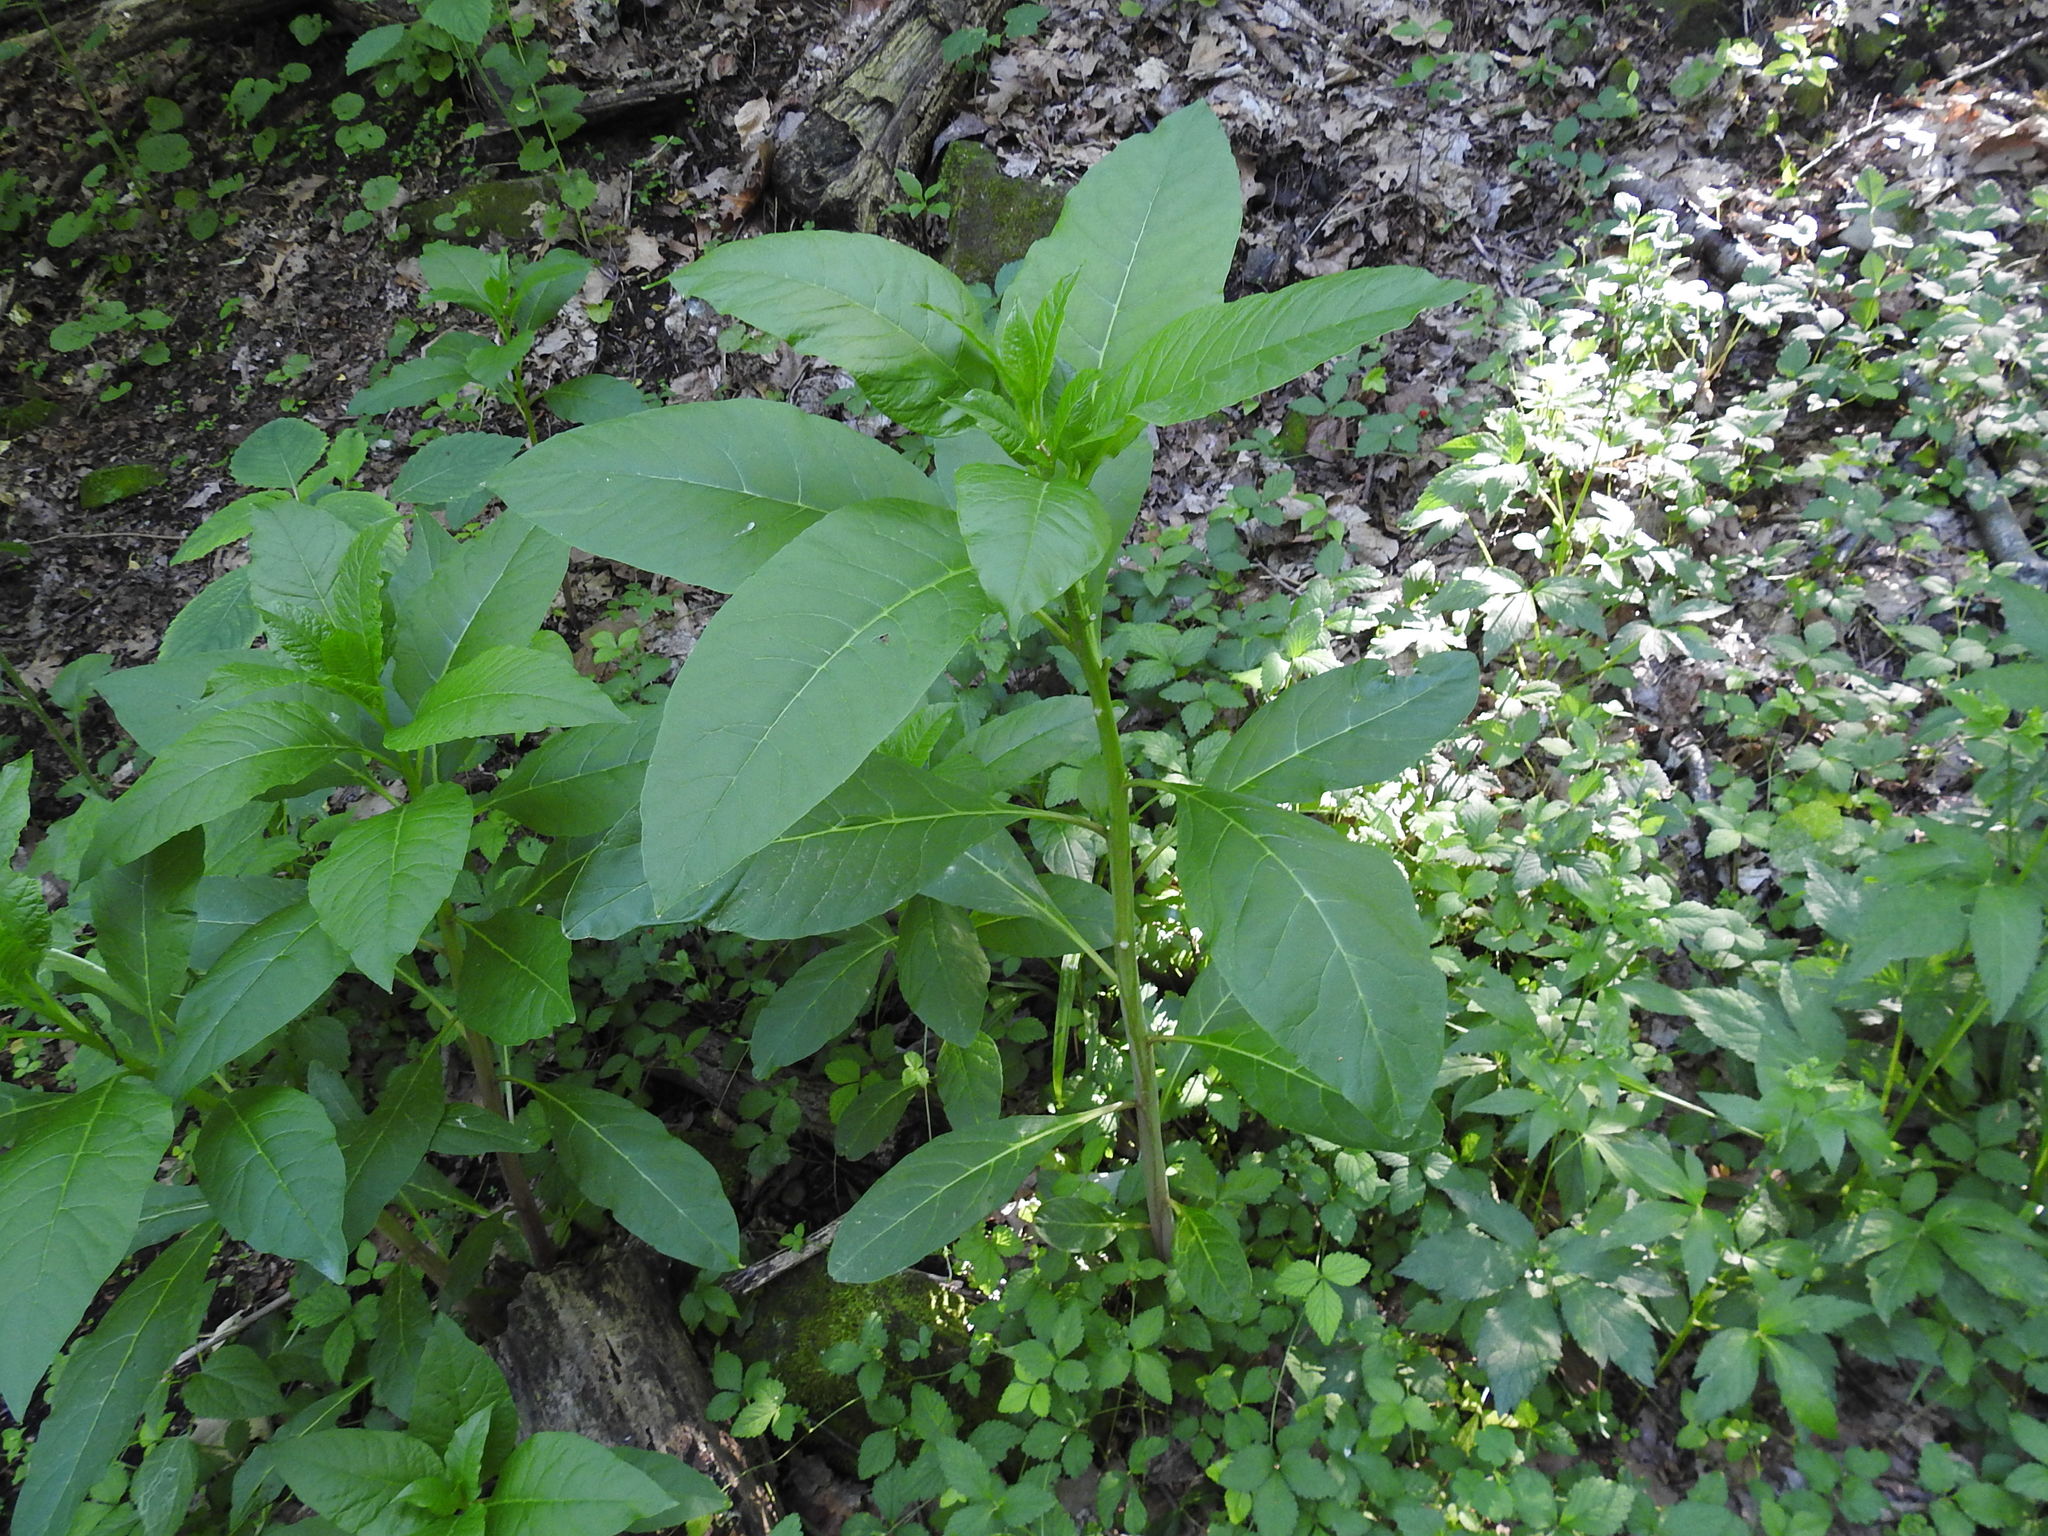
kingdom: Plantae
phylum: Tracheophyta
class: Magnoliopsida
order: Caryophyllales
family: Phytolaccaceae
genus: Phytolacca
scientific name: Phytolacca americana
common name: American pokeweed
